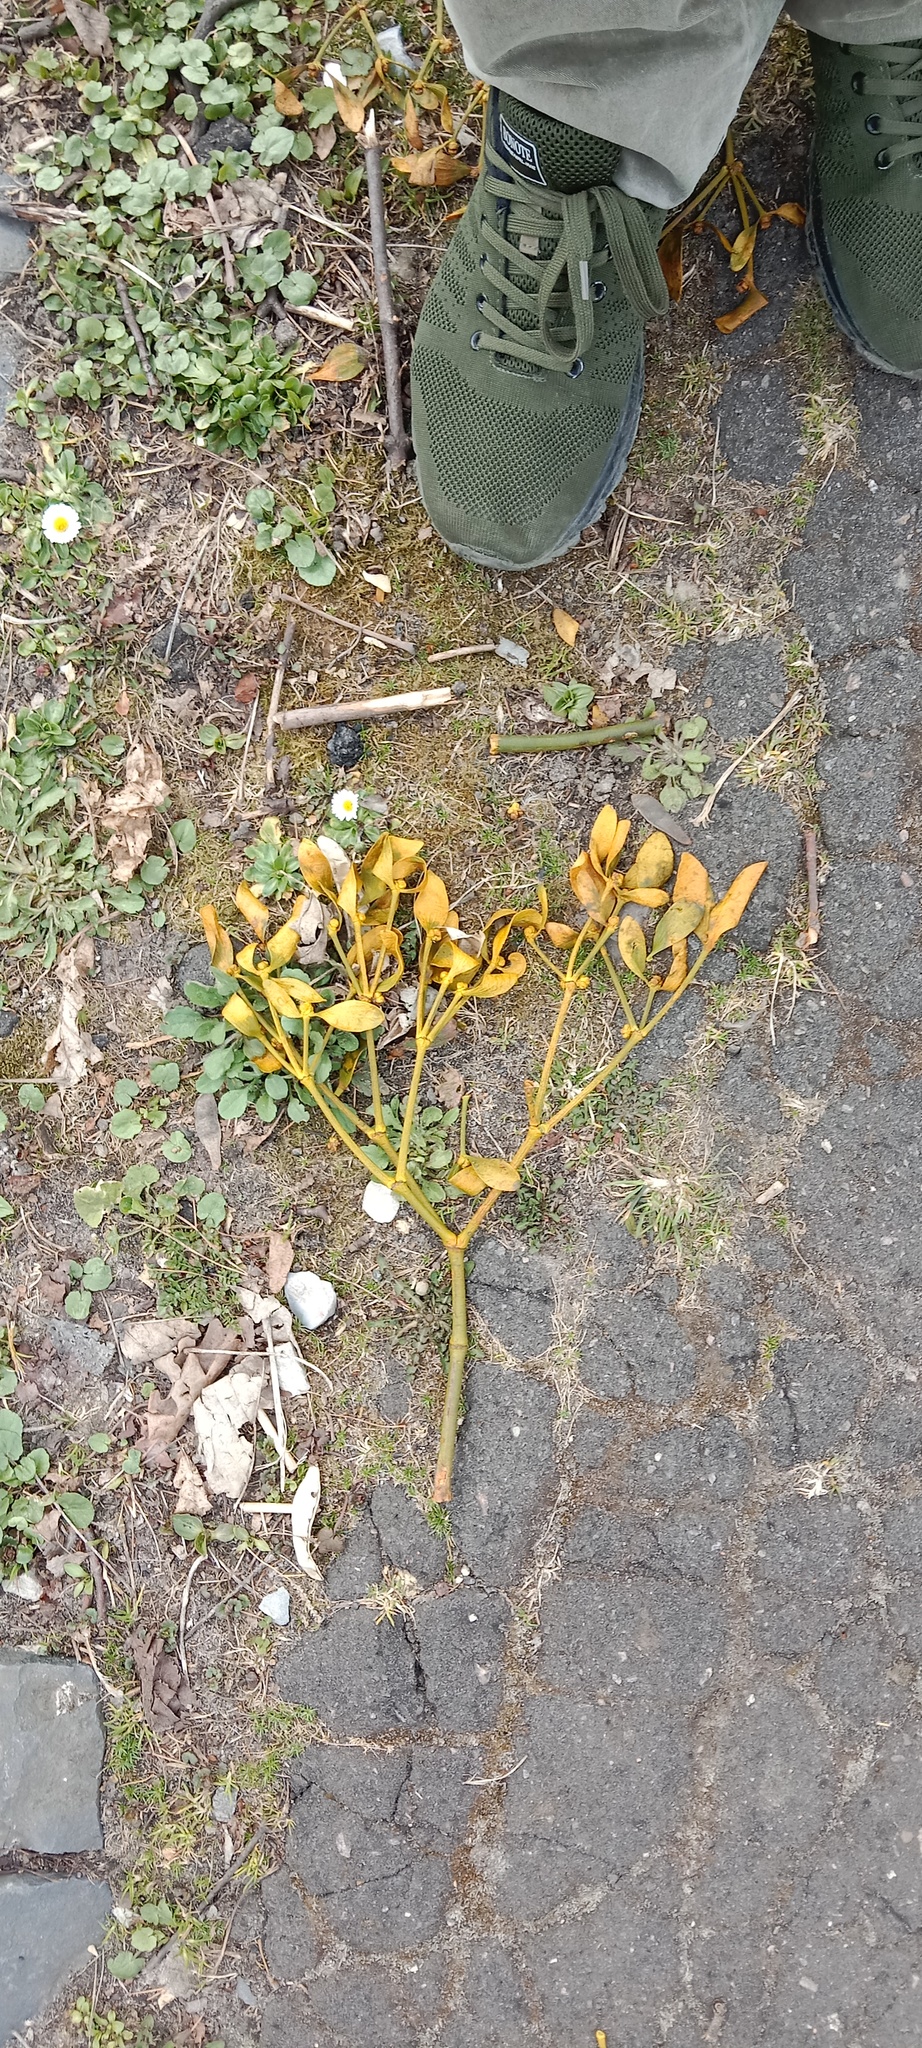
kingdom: Plantae
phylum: Tracheophyta
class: Magnoliopsida
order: Santalales
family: Viscaceae
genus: Viscum
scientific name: Viscum album
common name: Mistletoe
